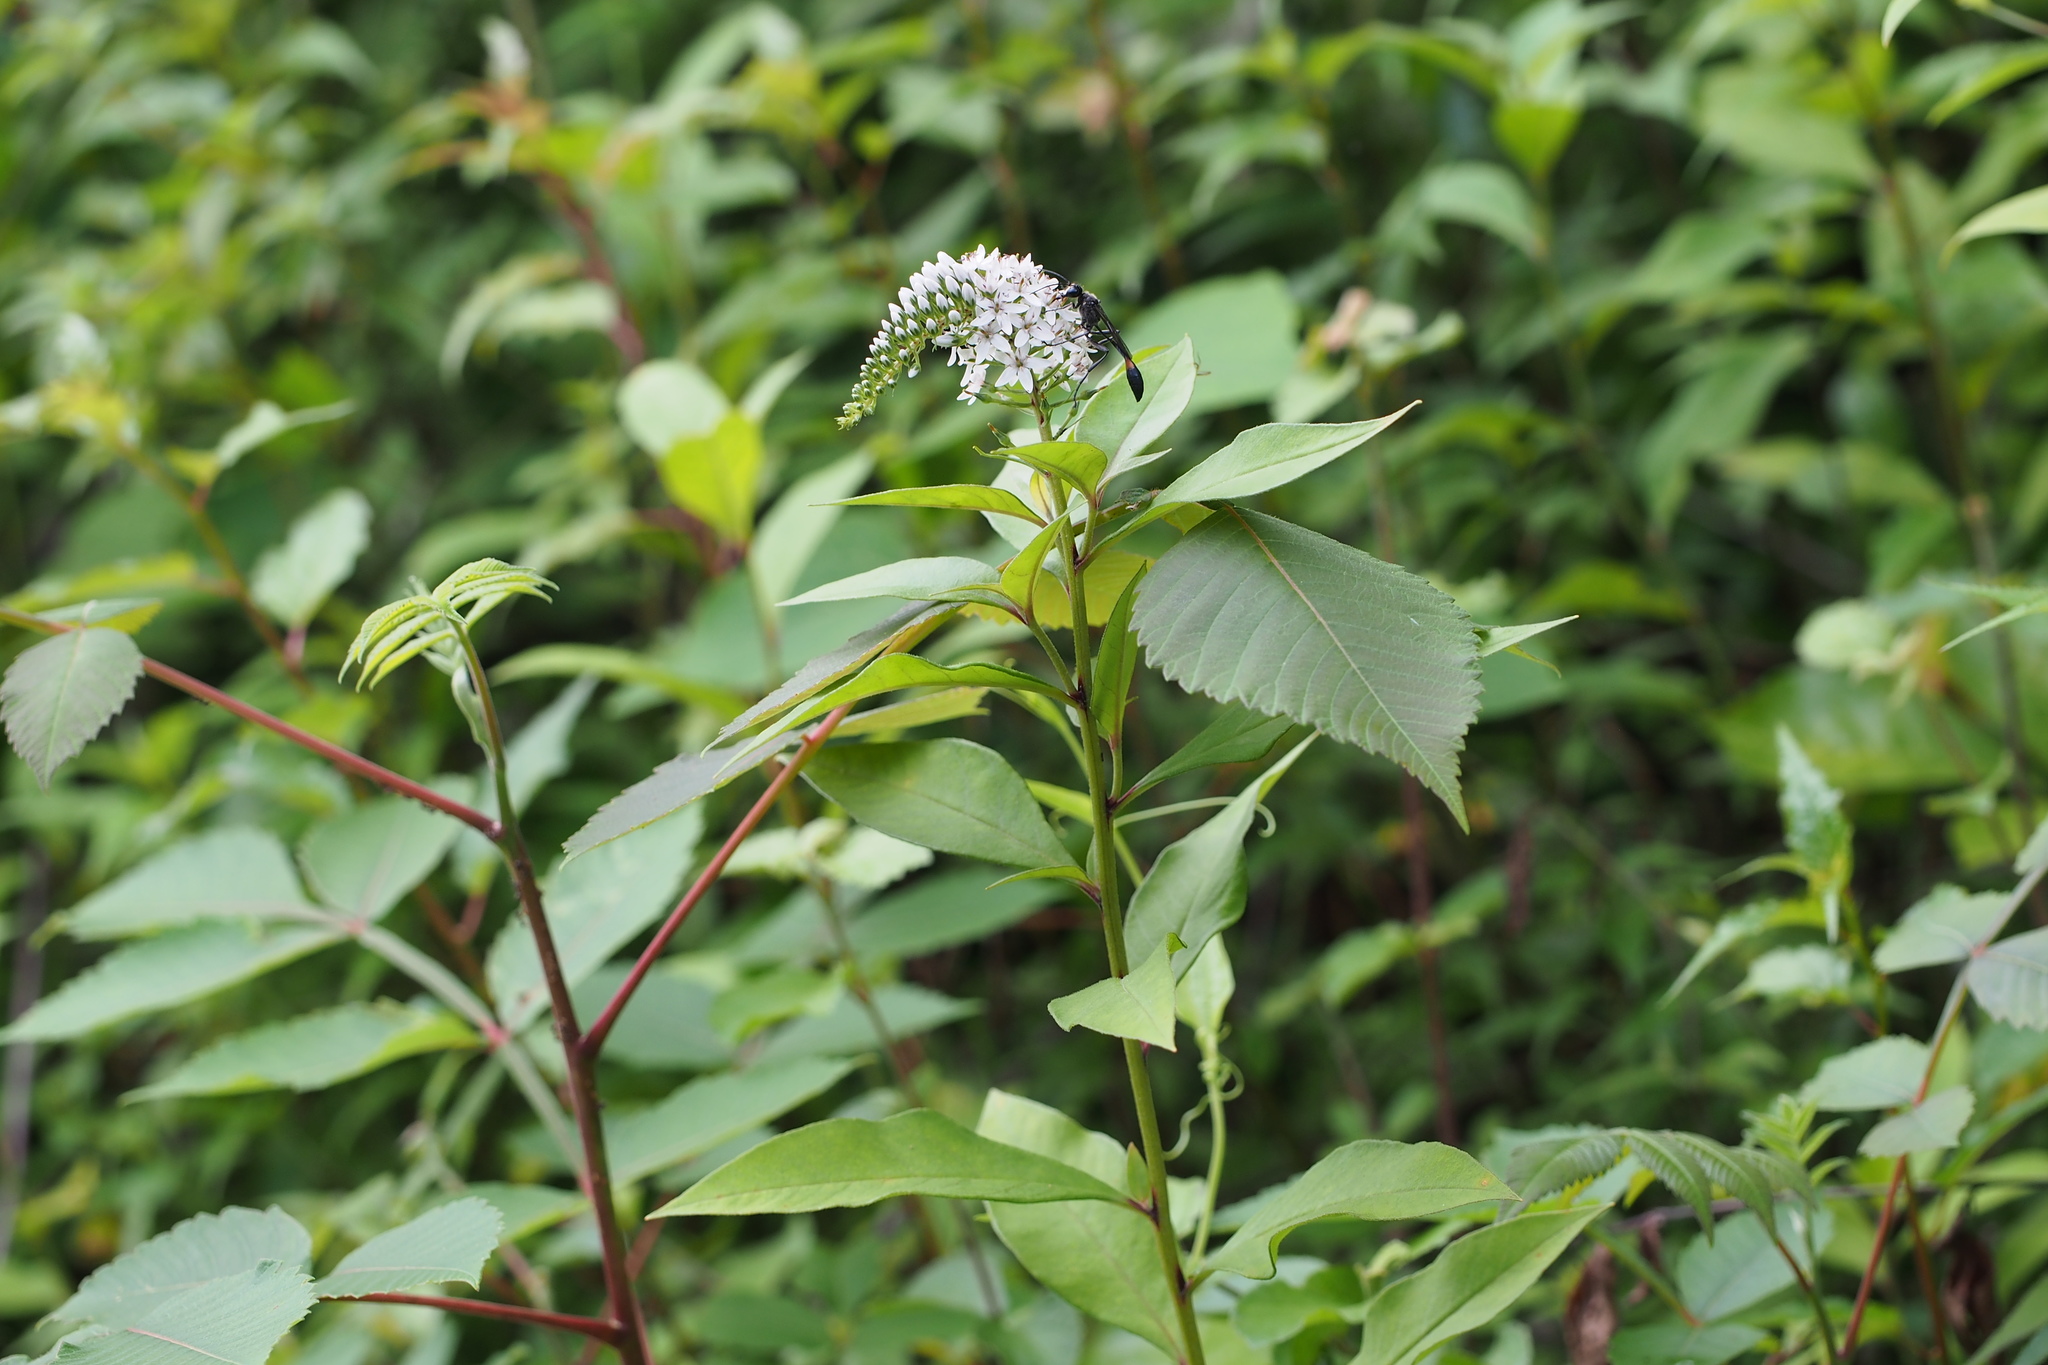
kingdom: Plantae
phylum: Tracheophyta
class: Magnoliopsida
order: Ericales
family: Primulaceae
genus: Lysimachia
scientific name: Lysimachia clethroides
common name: Gooseneck loosestrife
